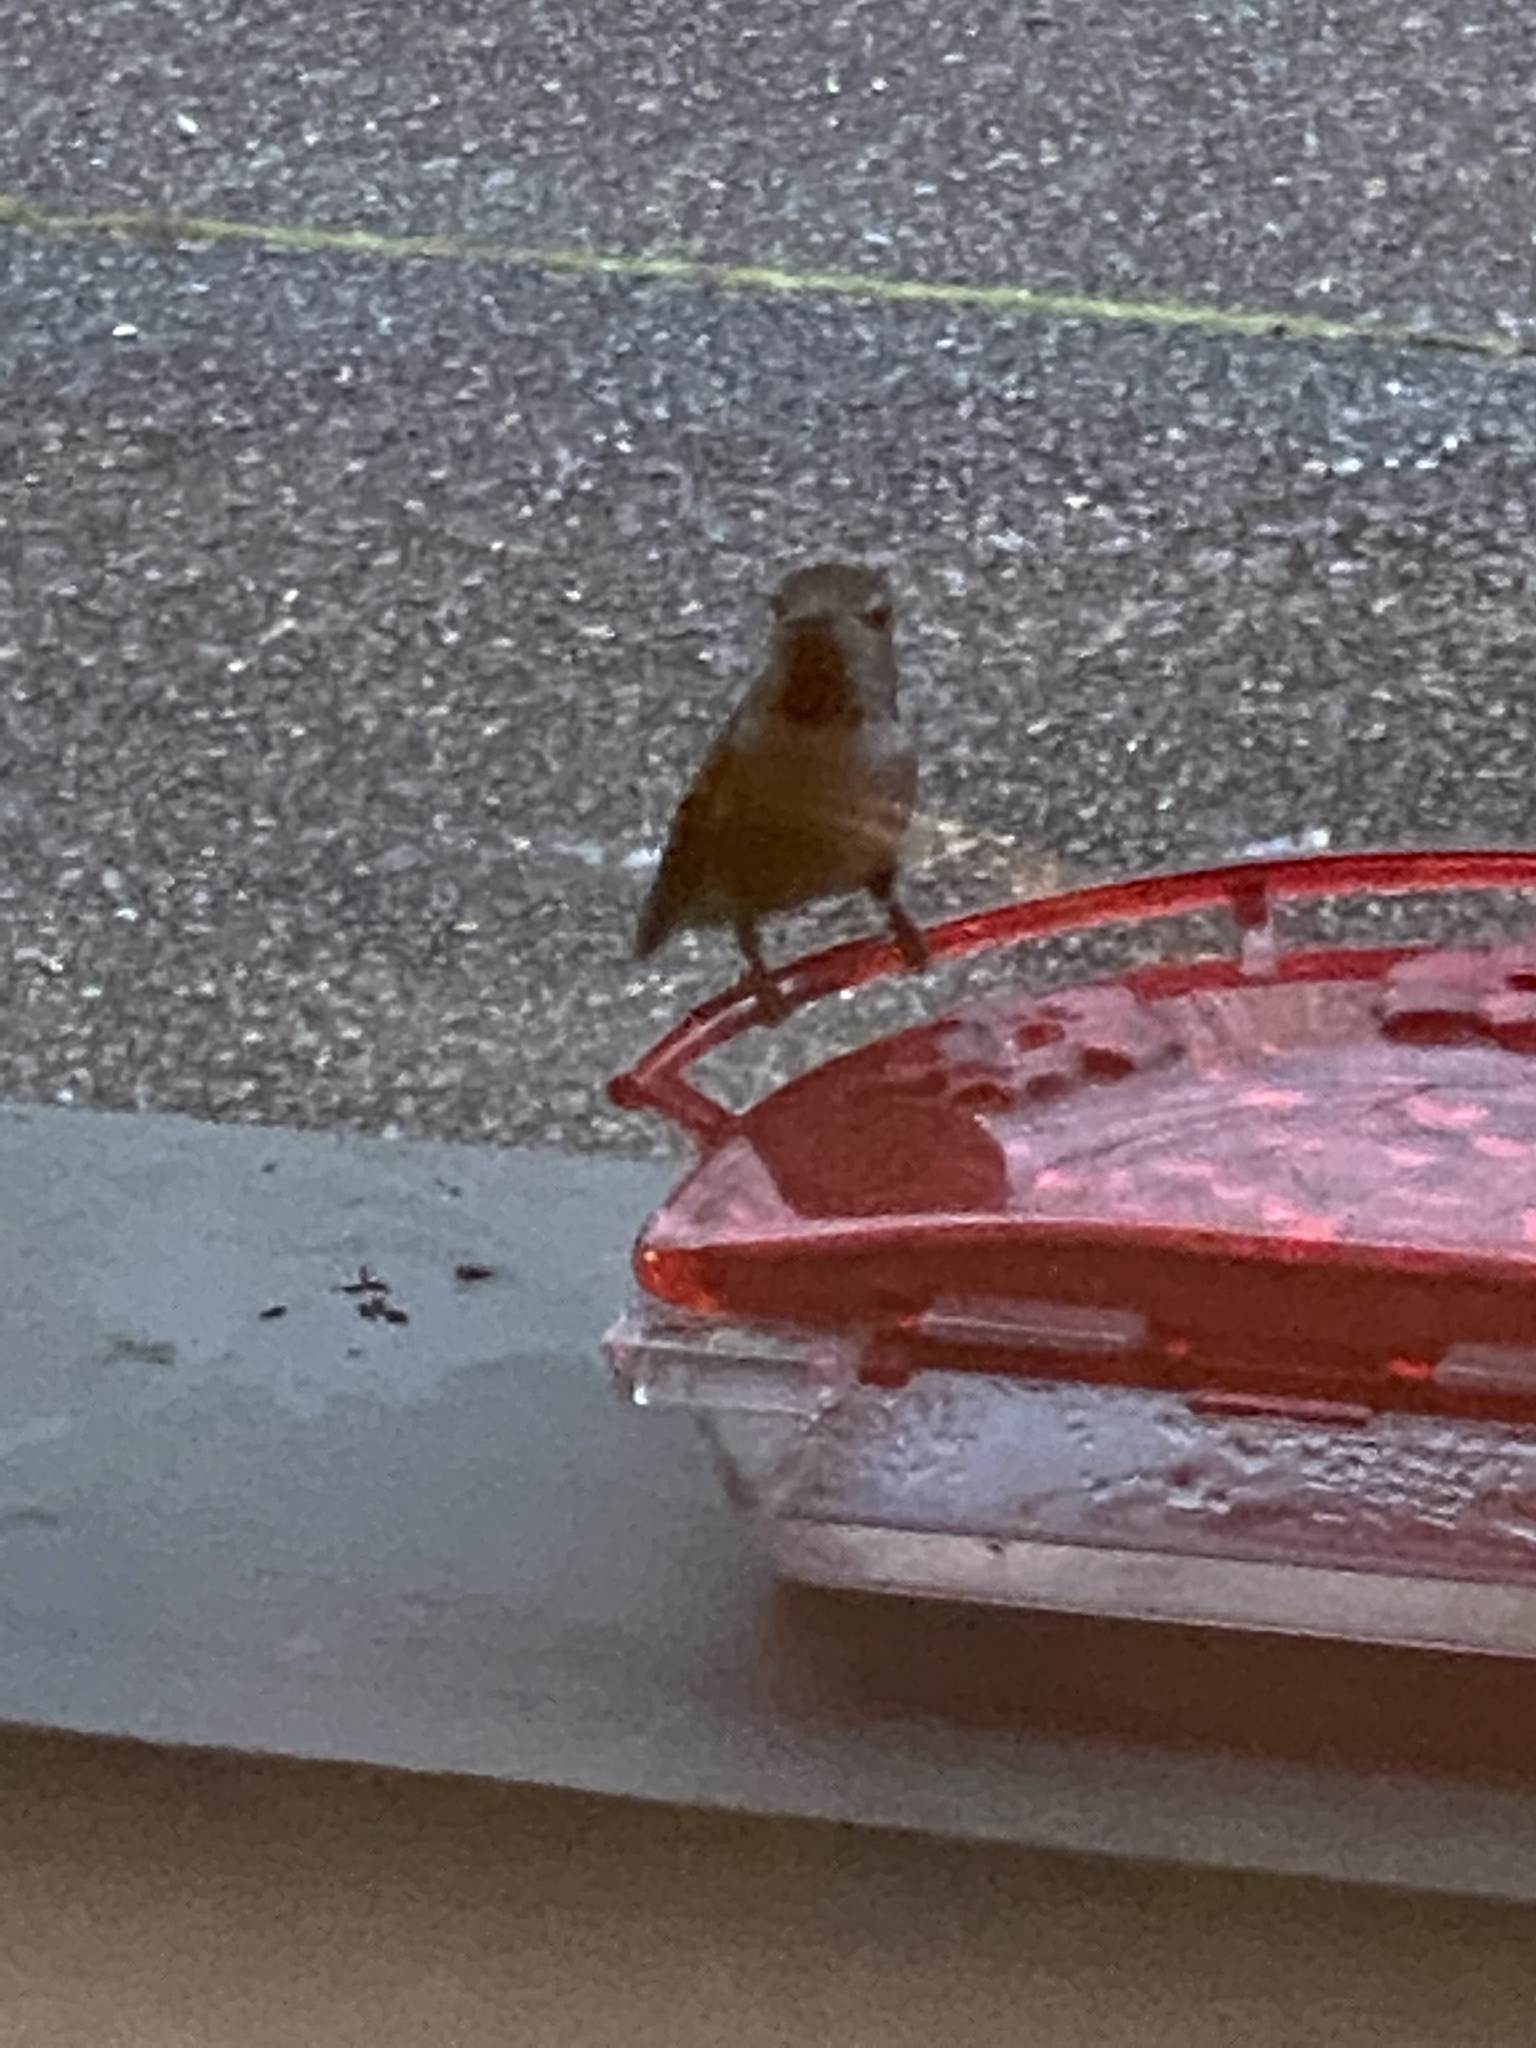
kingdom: Animalia
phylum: Chordata
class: Aves
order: Apodiformes
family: Trochilidae
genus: Calypte
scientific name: Calypte anna
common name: Anna's hummingbird
